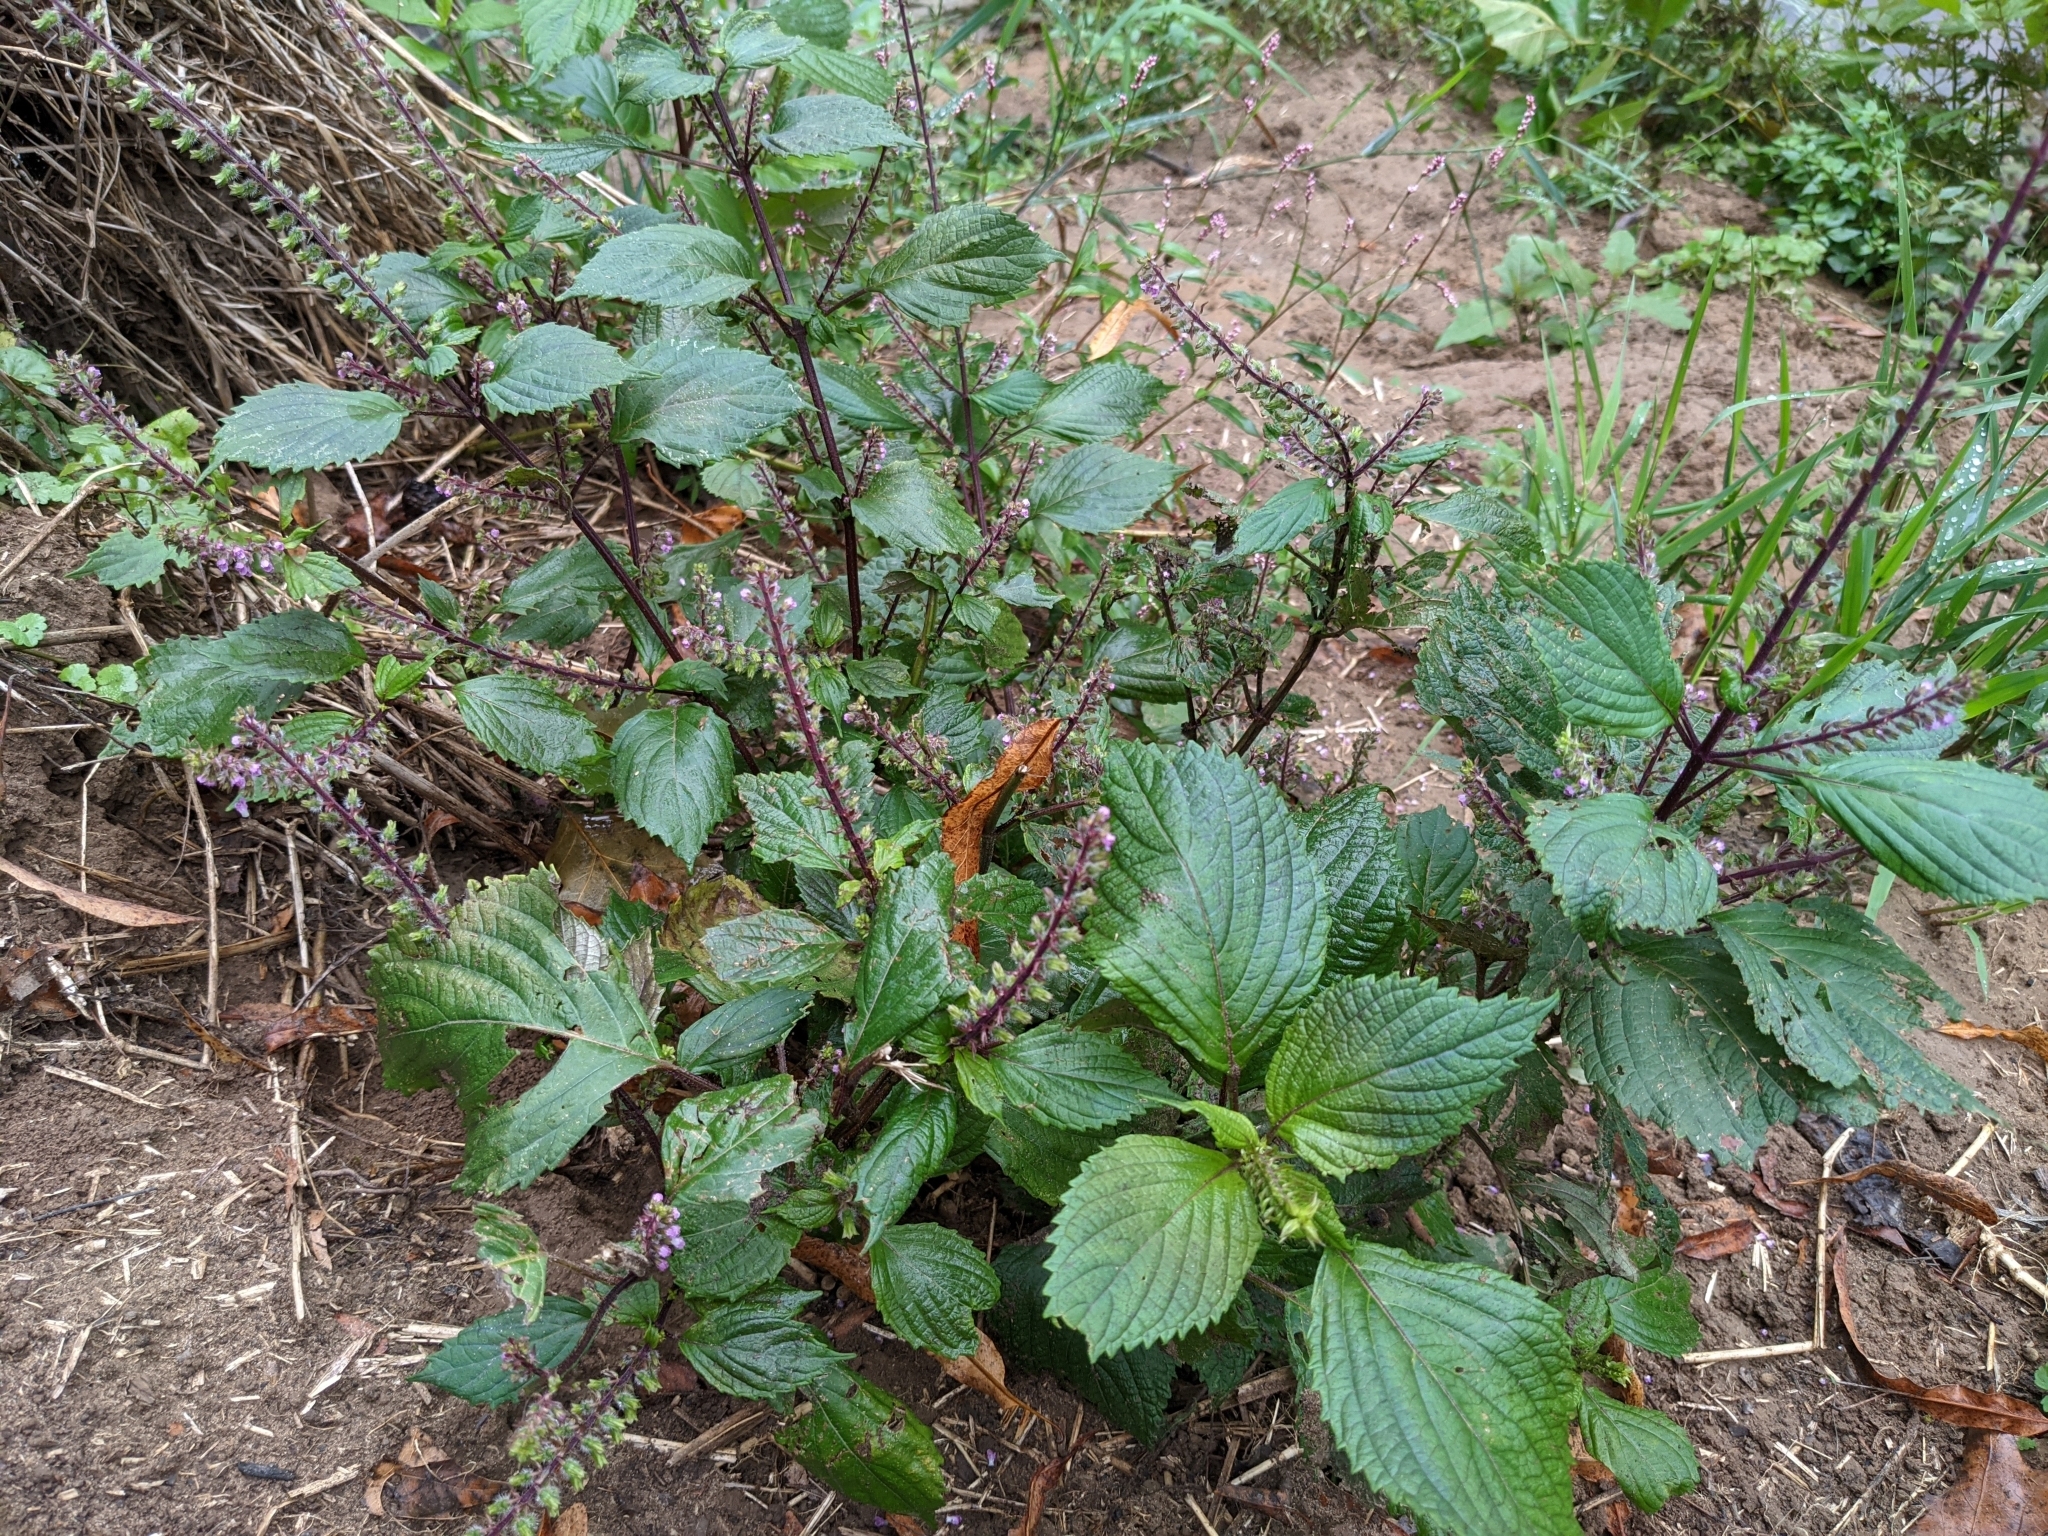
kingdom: Plantae
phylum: Tracheophyta
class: Magnoliopsida
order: Lamiales
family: Lamiaceae
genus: Perilla
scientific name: Perilla frutescens
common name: Perilla
